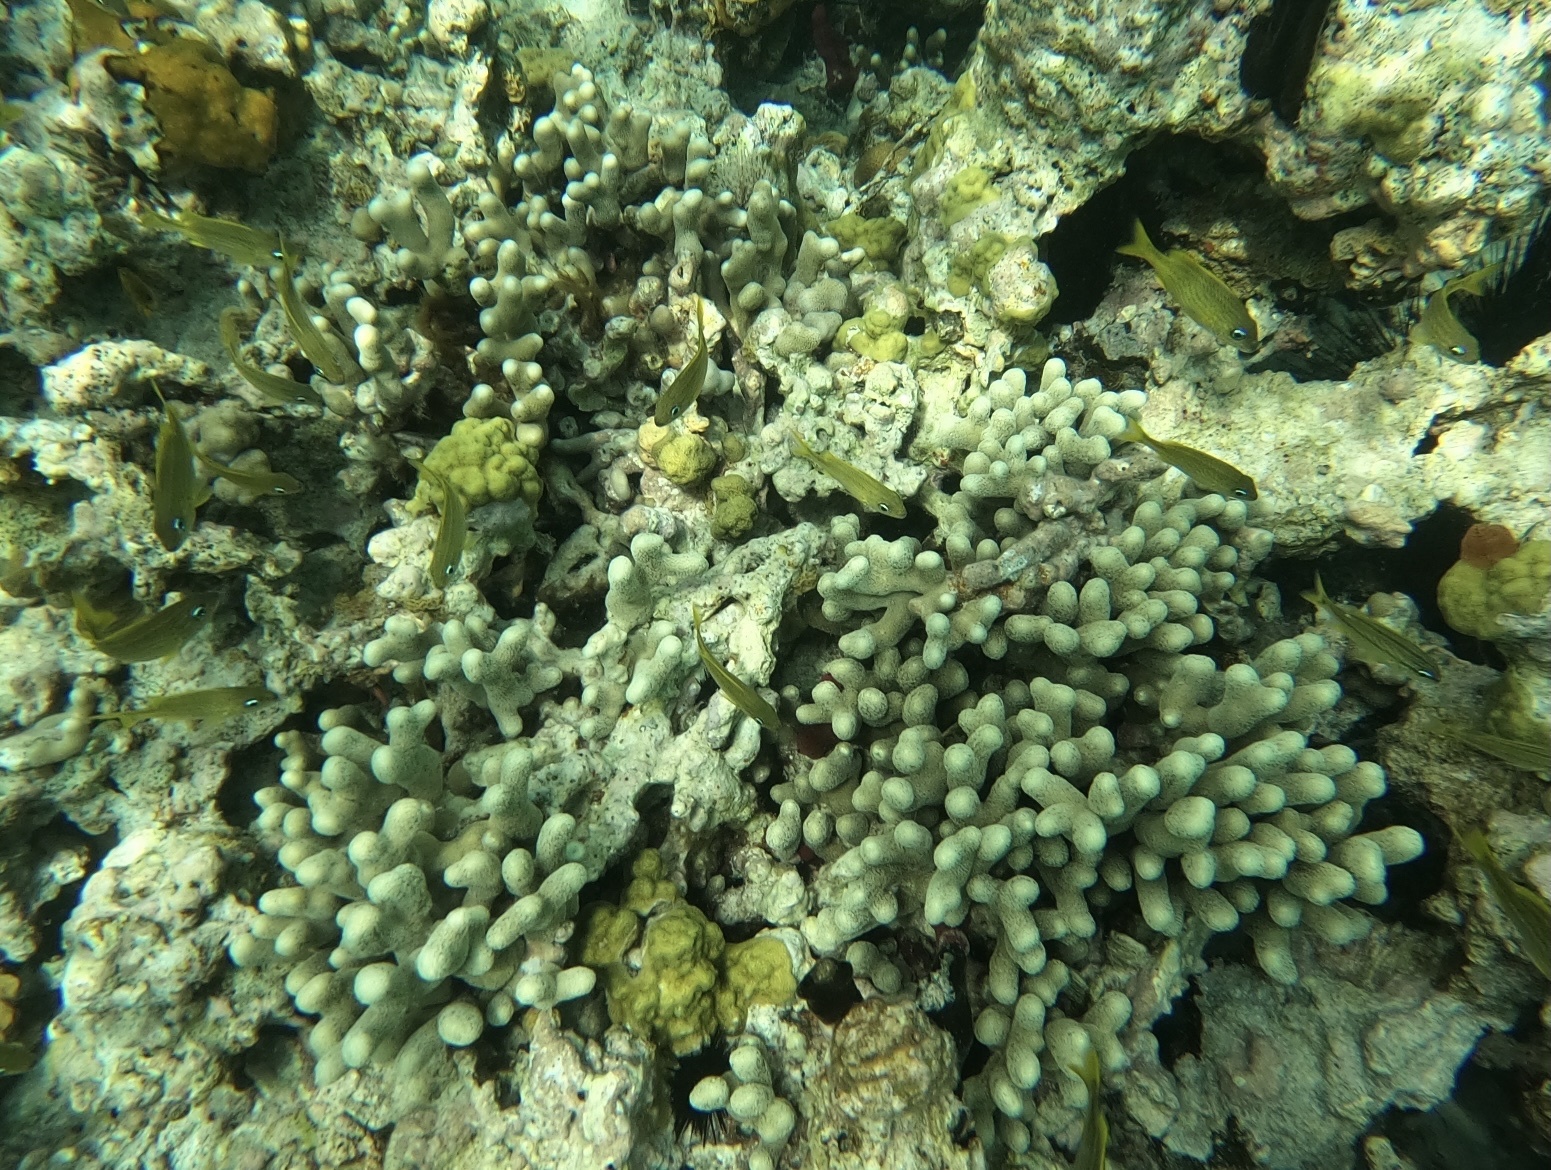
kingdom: Animalia
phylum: Cnidaria
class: Anthozoa
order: Scleractinia
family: Poritidae
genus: Porites
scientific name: Porites porites
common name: Finger coral
